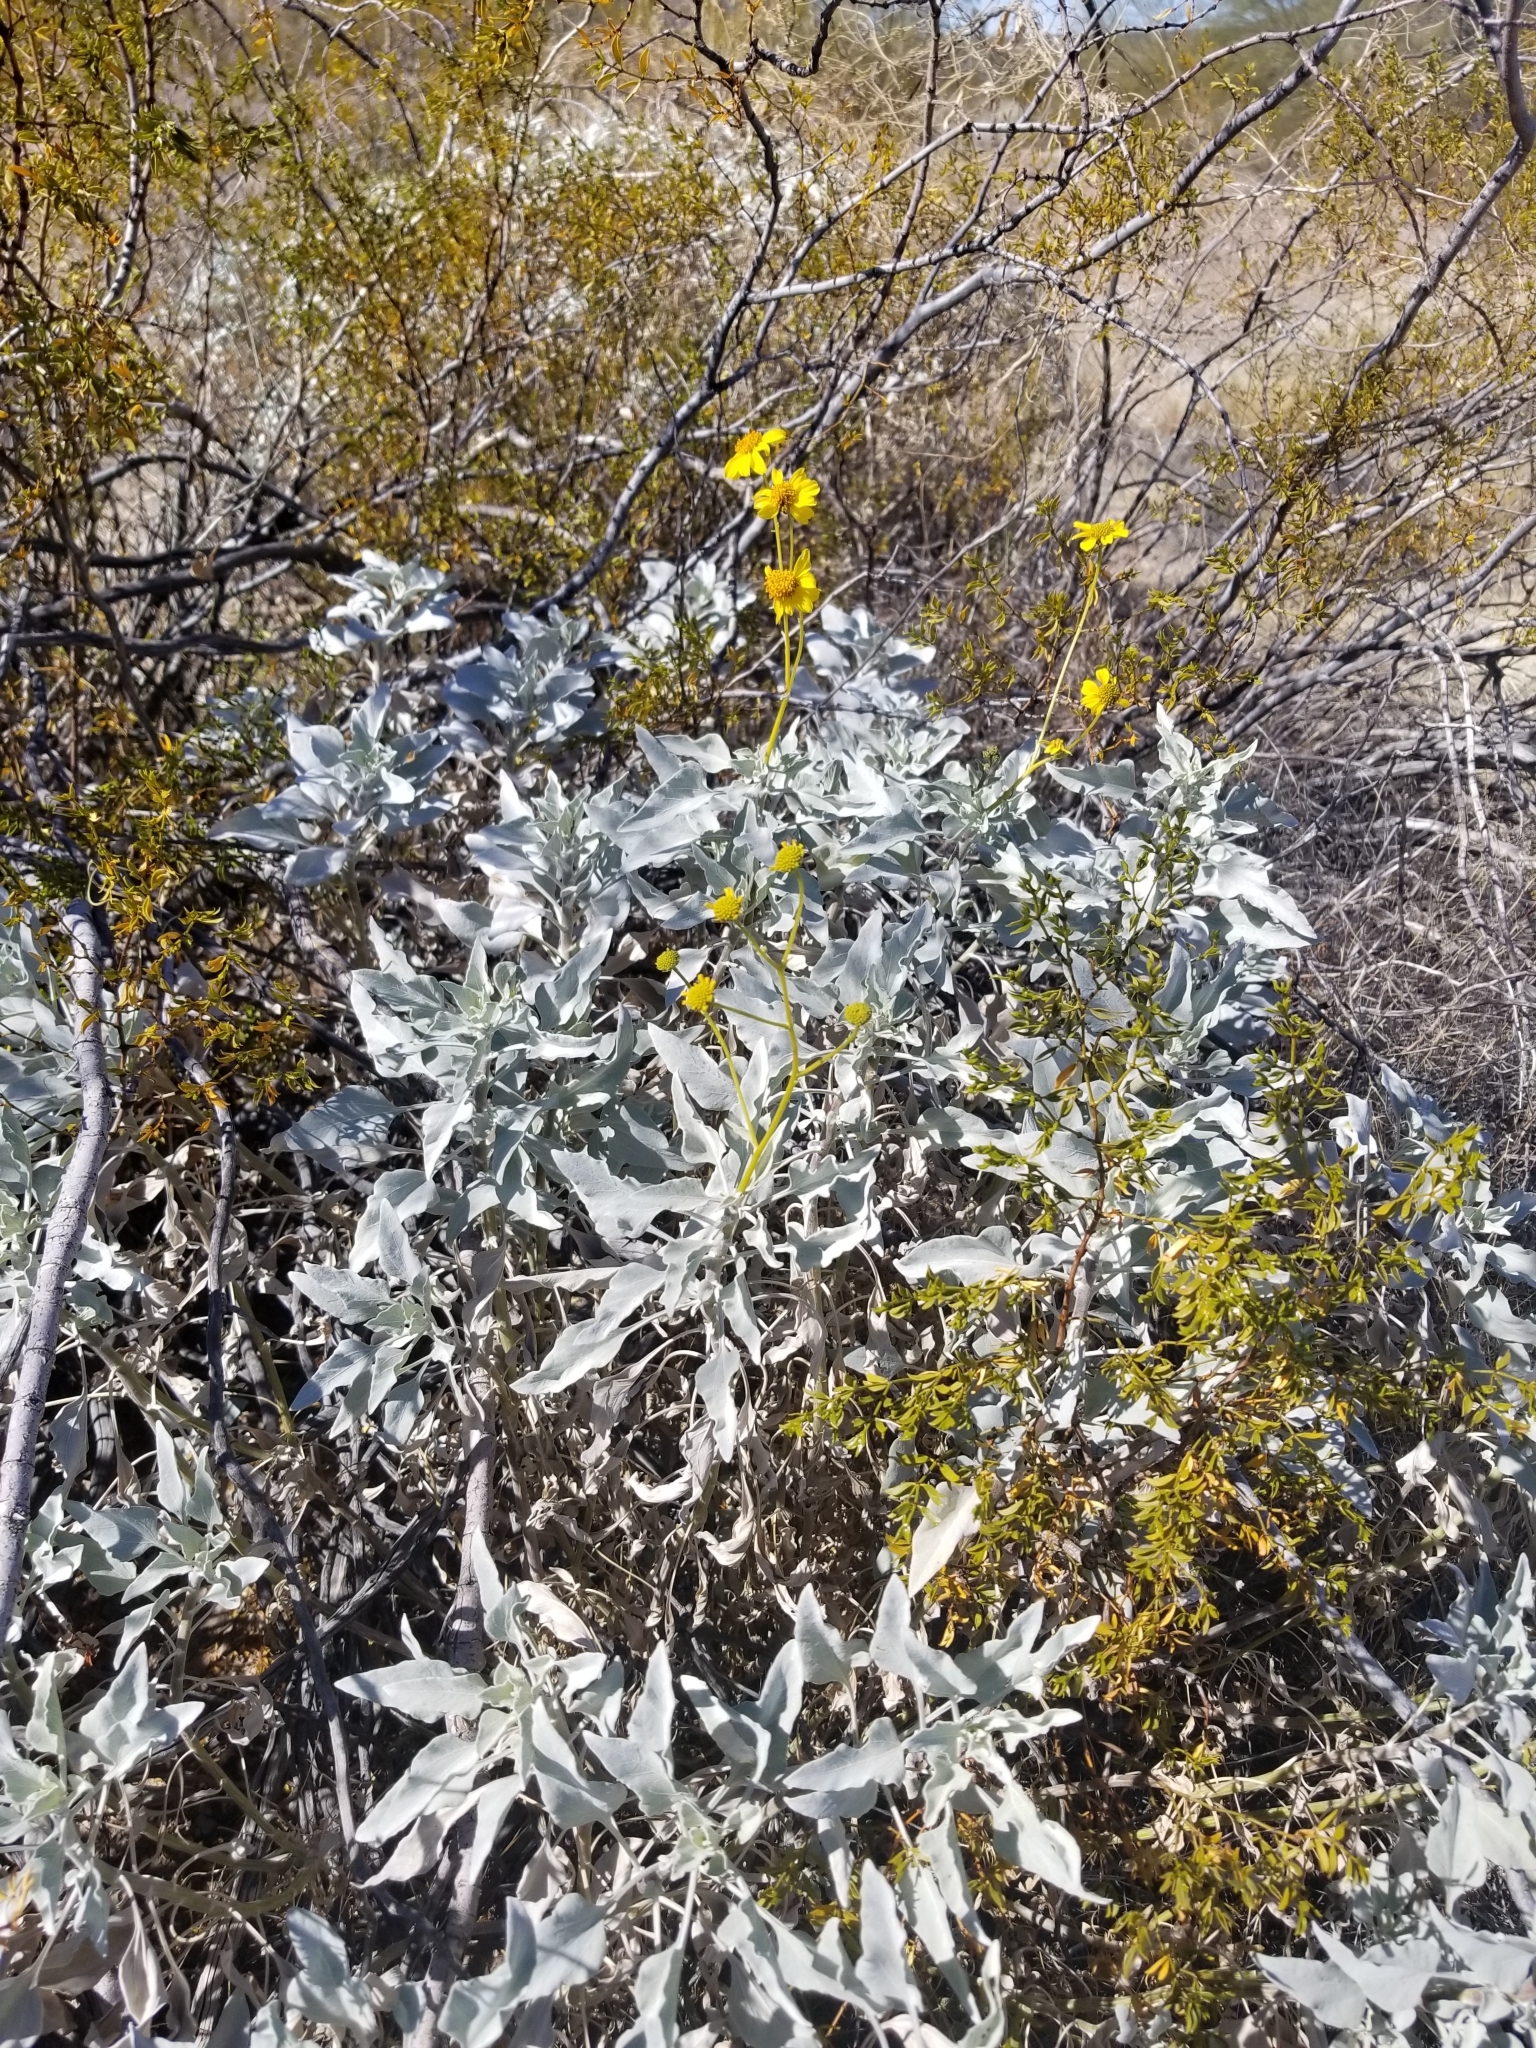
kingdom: Plantae
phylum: Tracheophyta
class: Magnoliopsida
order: Asterales
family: Asteraceae
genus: Encelia
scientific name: Encelia farinosa
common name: Brittlebush
